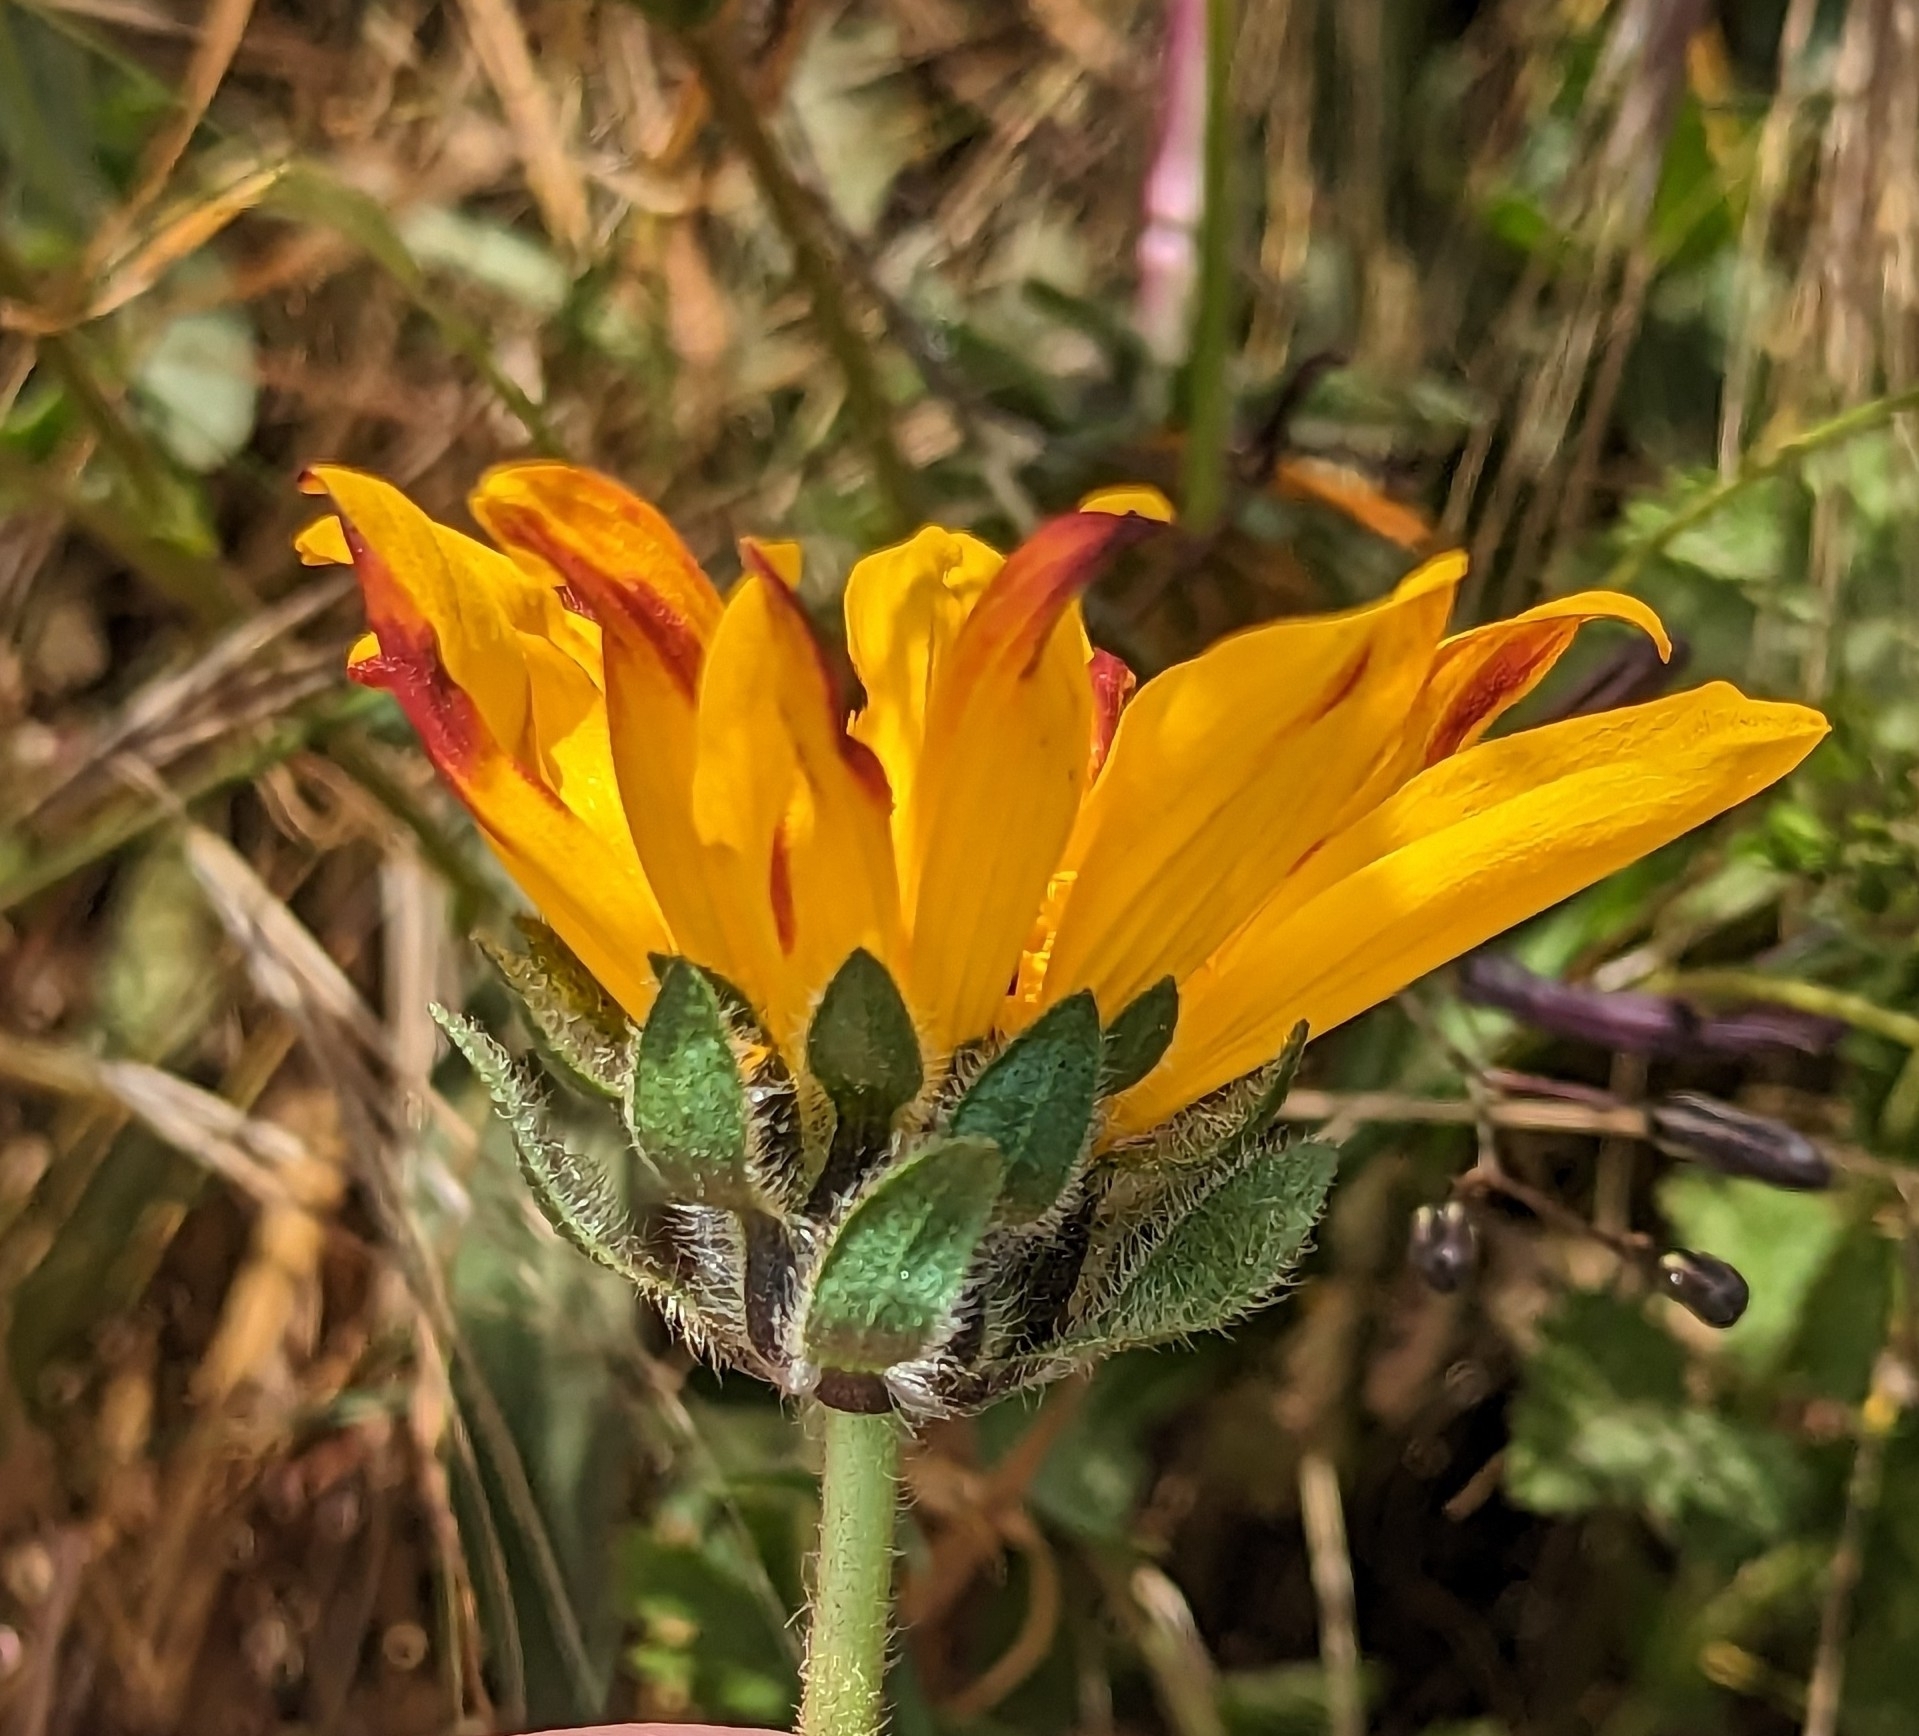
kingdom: Plantae
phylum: Tracheophyta
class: Magnoliopsida
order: Asterales
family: Asteraceae
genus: Wyethia
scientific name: Wyethia angustifolia
